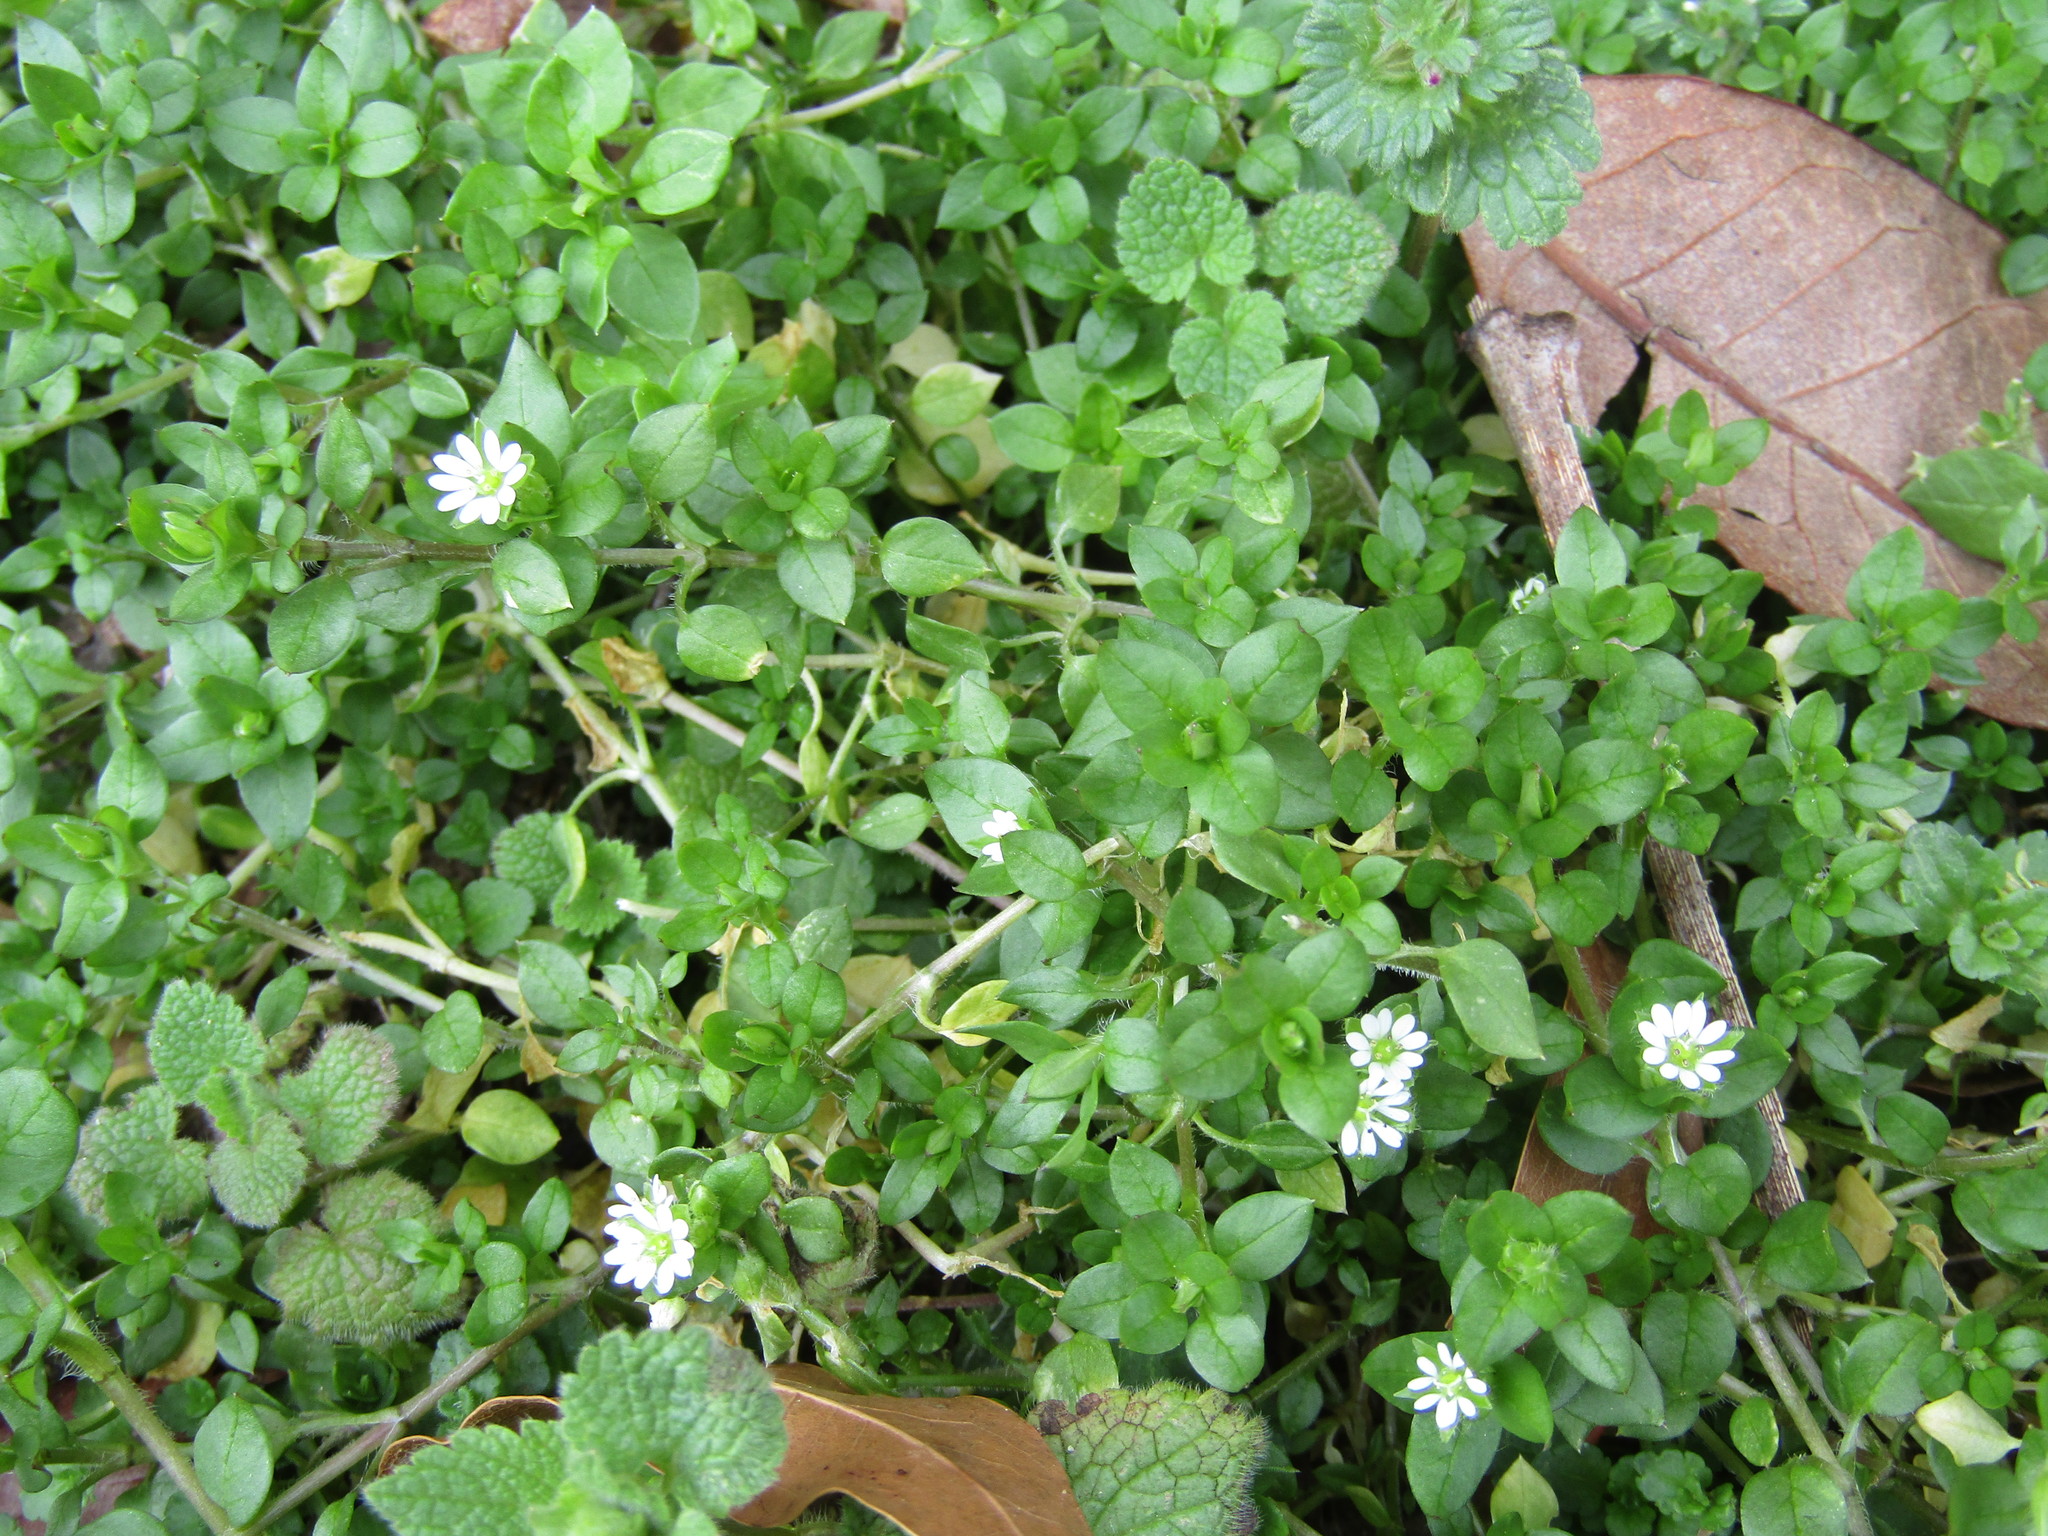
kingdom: Plantae
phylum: Tracheophyta
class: Magnoliopsida
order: Caryophyllales
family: Caryophyllaceae
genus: Stellaria
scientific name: Stellaria media
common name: Common chickweed
